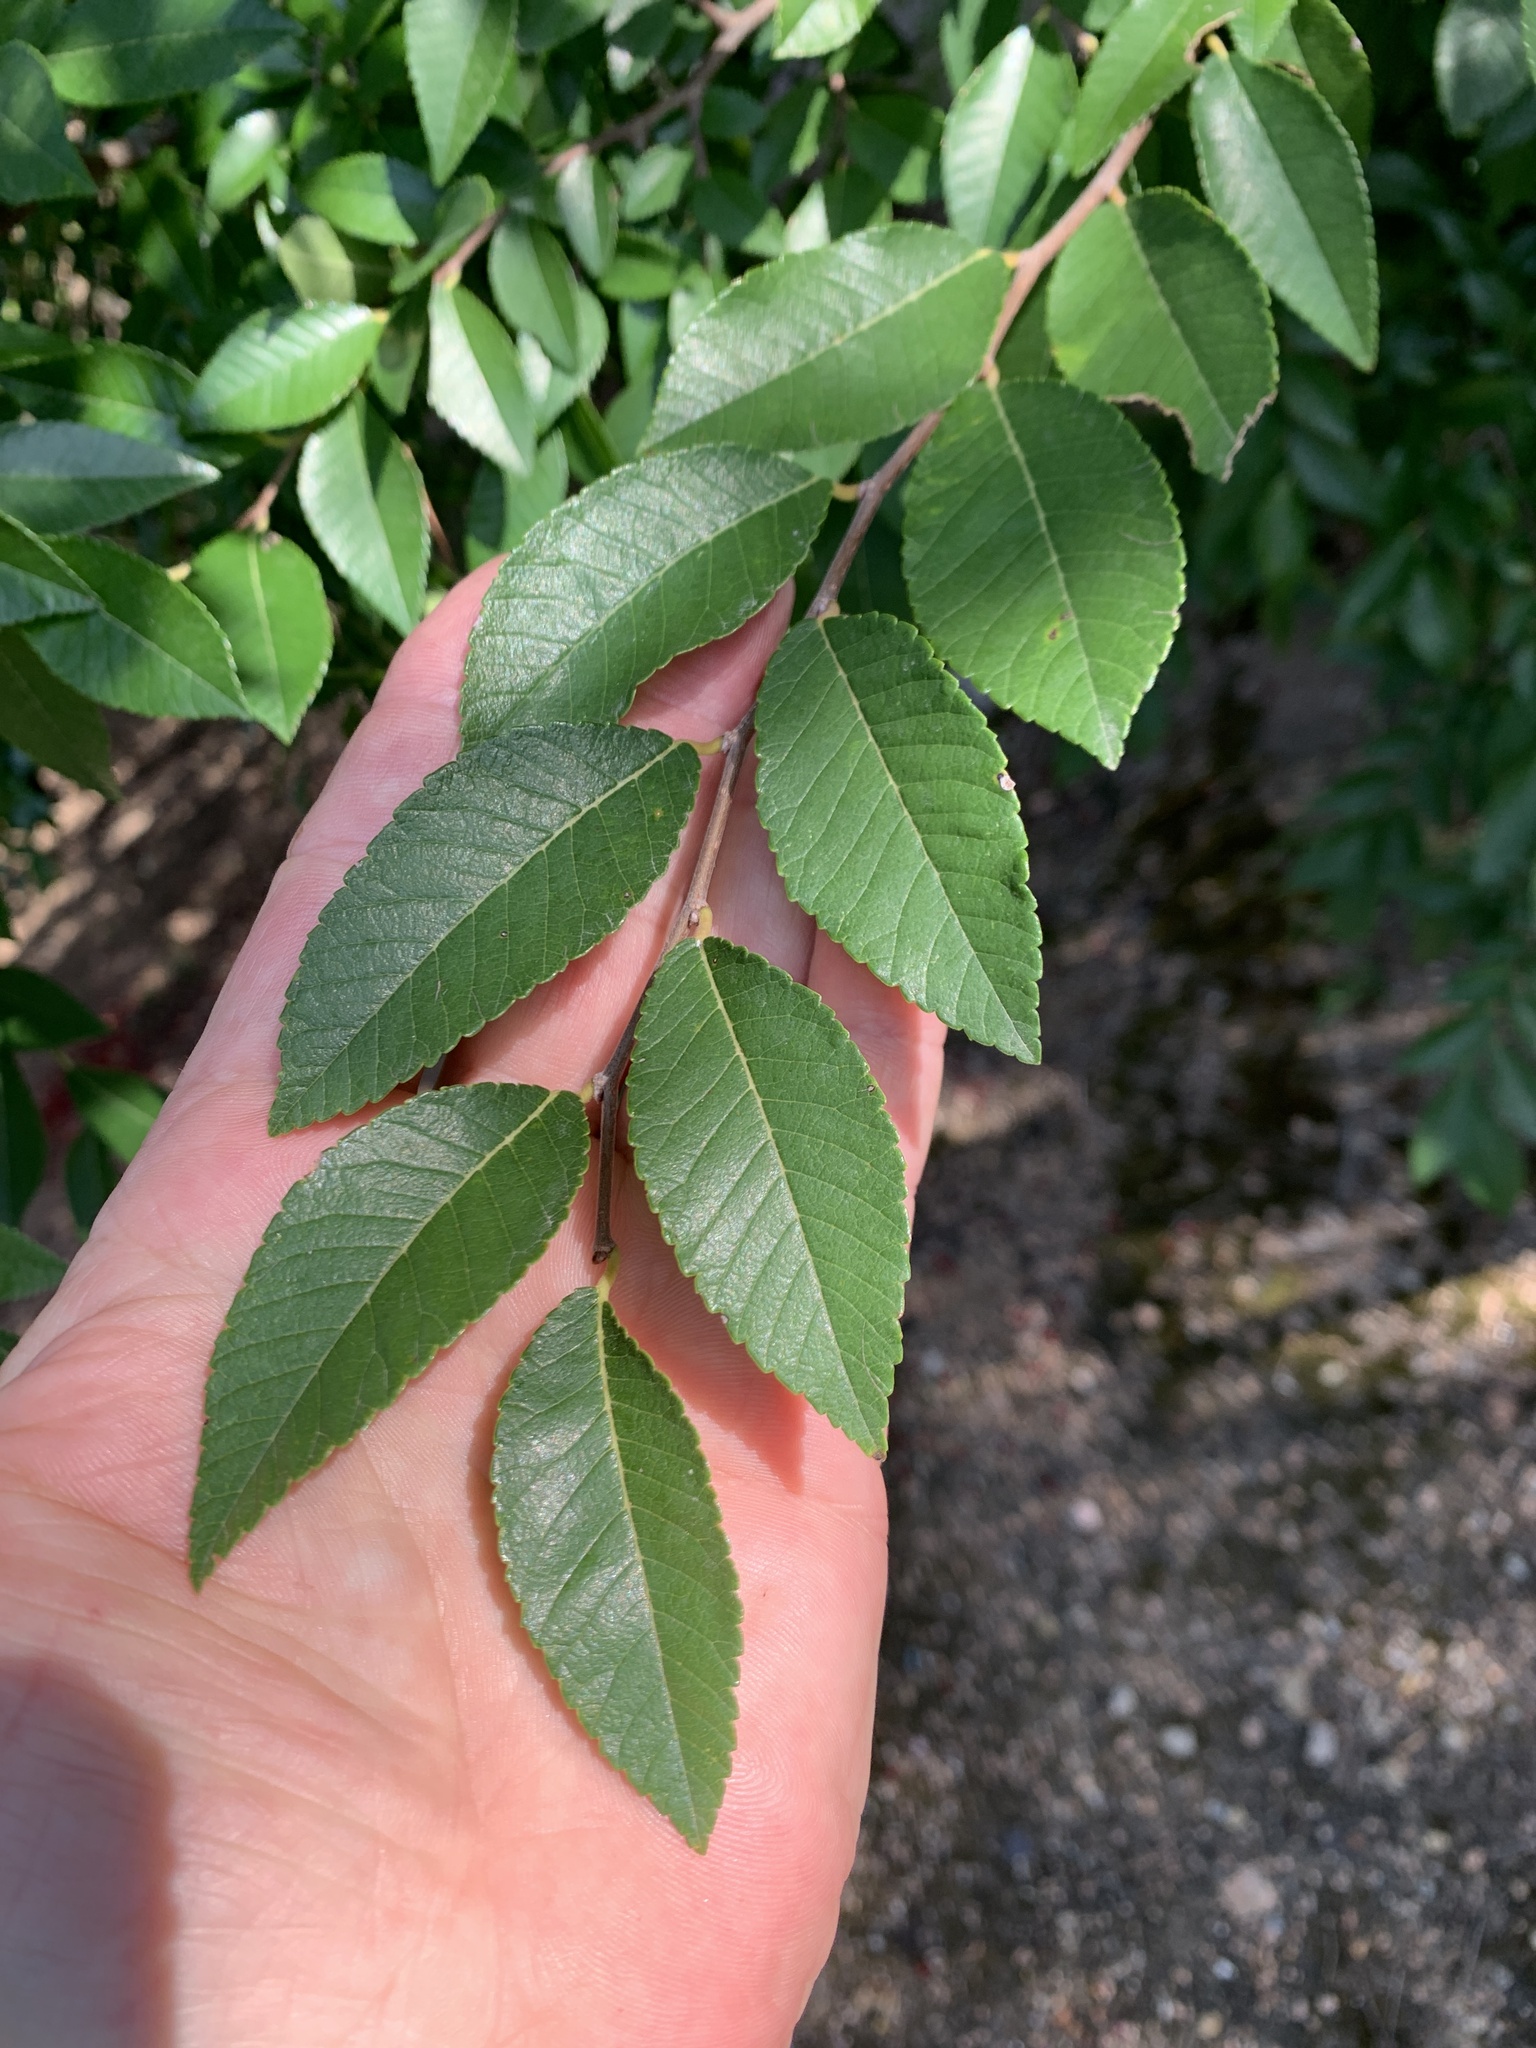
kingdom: Plantae
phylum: Tracheophyta
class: Magnoliopsida
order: Rosales
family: Ulmaceae
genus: Ulmus
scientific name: Ulmus parvifolia
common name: Chinese elm
